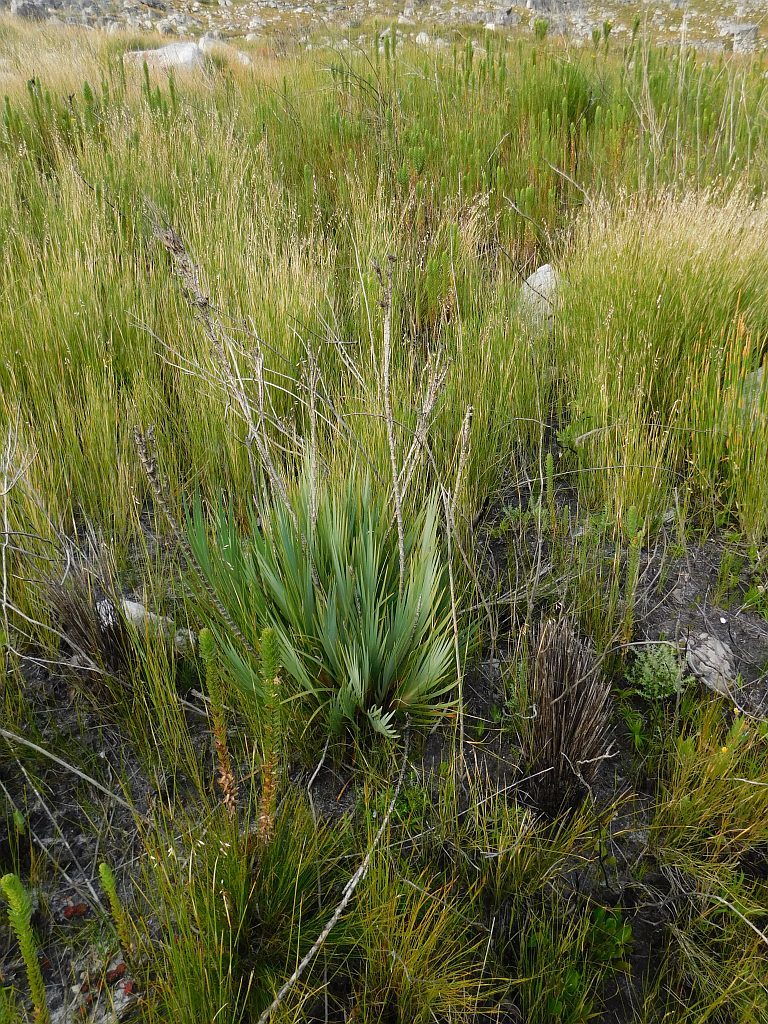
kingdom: Plantae
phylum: Tracheophyta
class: Liliopsida
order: Asparagales
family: Iridaceae
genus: Klattia
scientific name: Klattia flava
